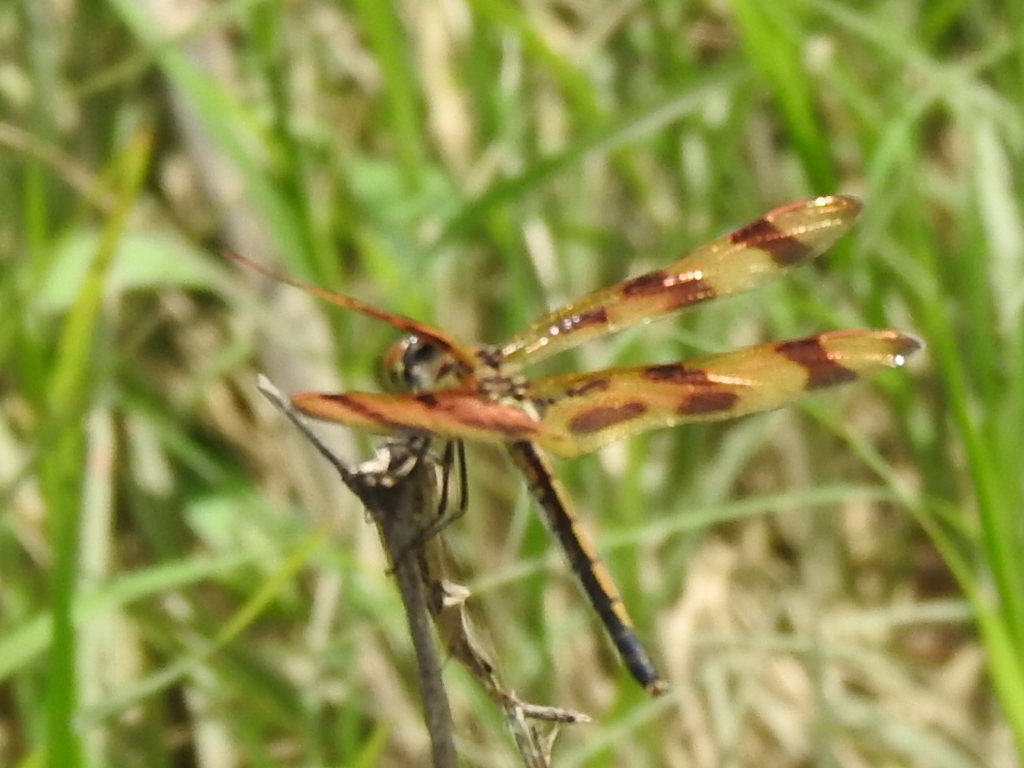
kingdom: Animalia
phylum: Arthropoda
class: Insecta
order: Odonata
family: Libellulidae
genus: Celithemis
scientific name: Celithemis eponina
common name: Halloween pennant
